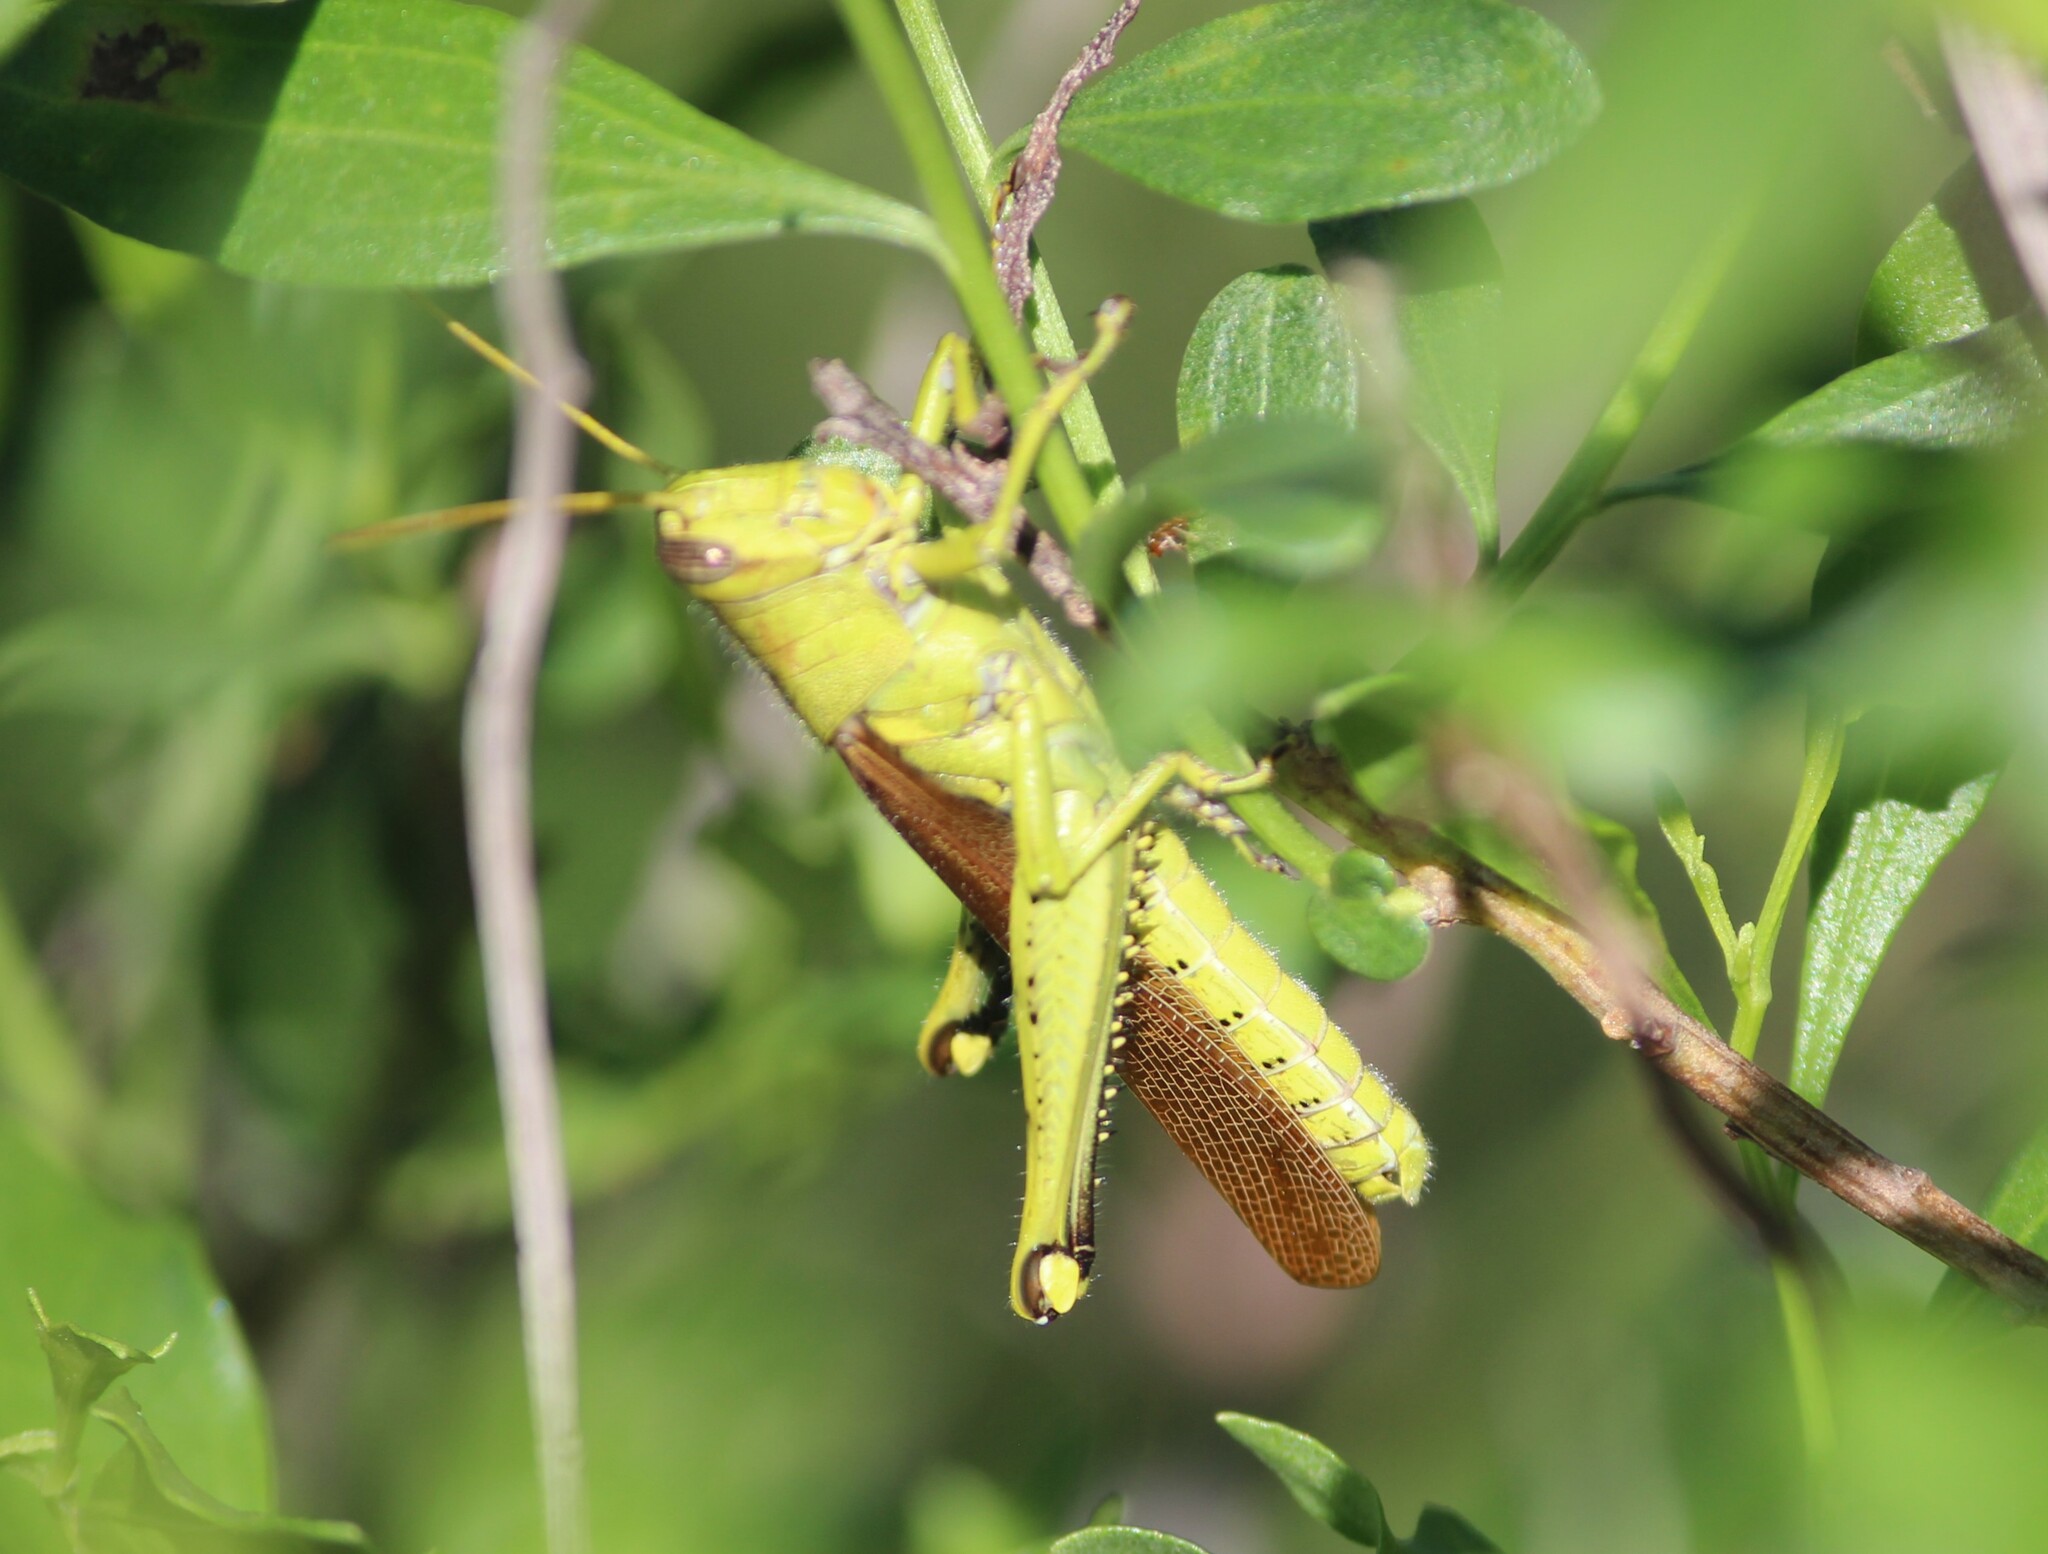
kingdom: Animalia
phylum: Arthropoda
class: Insecta
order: Orthoptera
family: Acrididae
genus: Schistocerca
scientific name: Schistocerca obscura
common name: Obscure bird grasshopper
